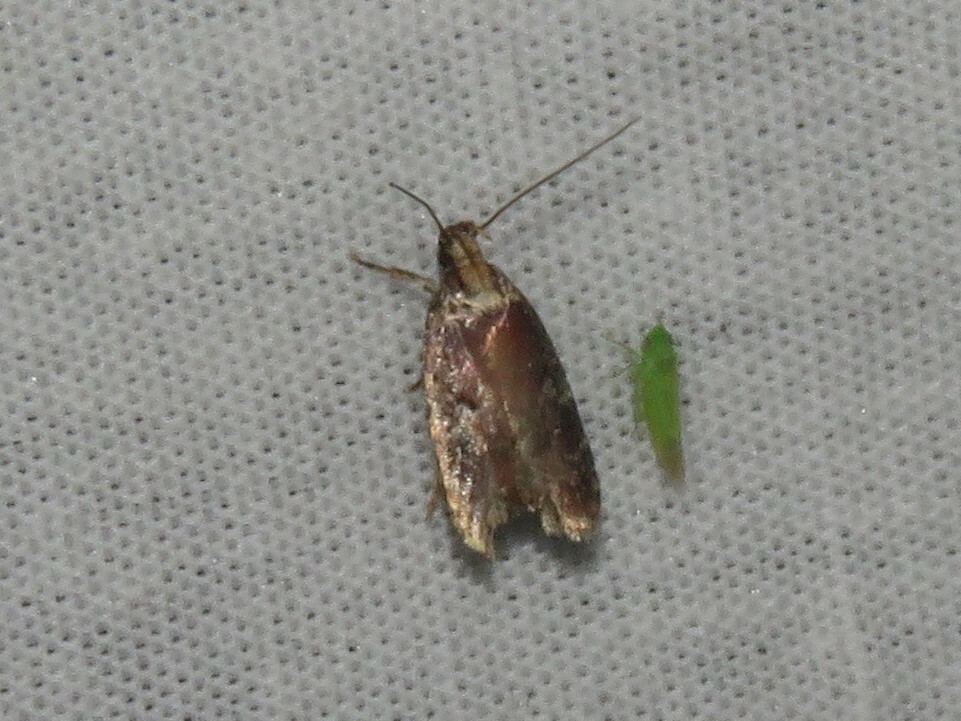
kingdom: Animalia
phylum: Arthropoda
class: Insecta
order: Lepidoptera
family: Depressariidae
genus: Agonopterix
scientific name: Agonopterix lythrella
